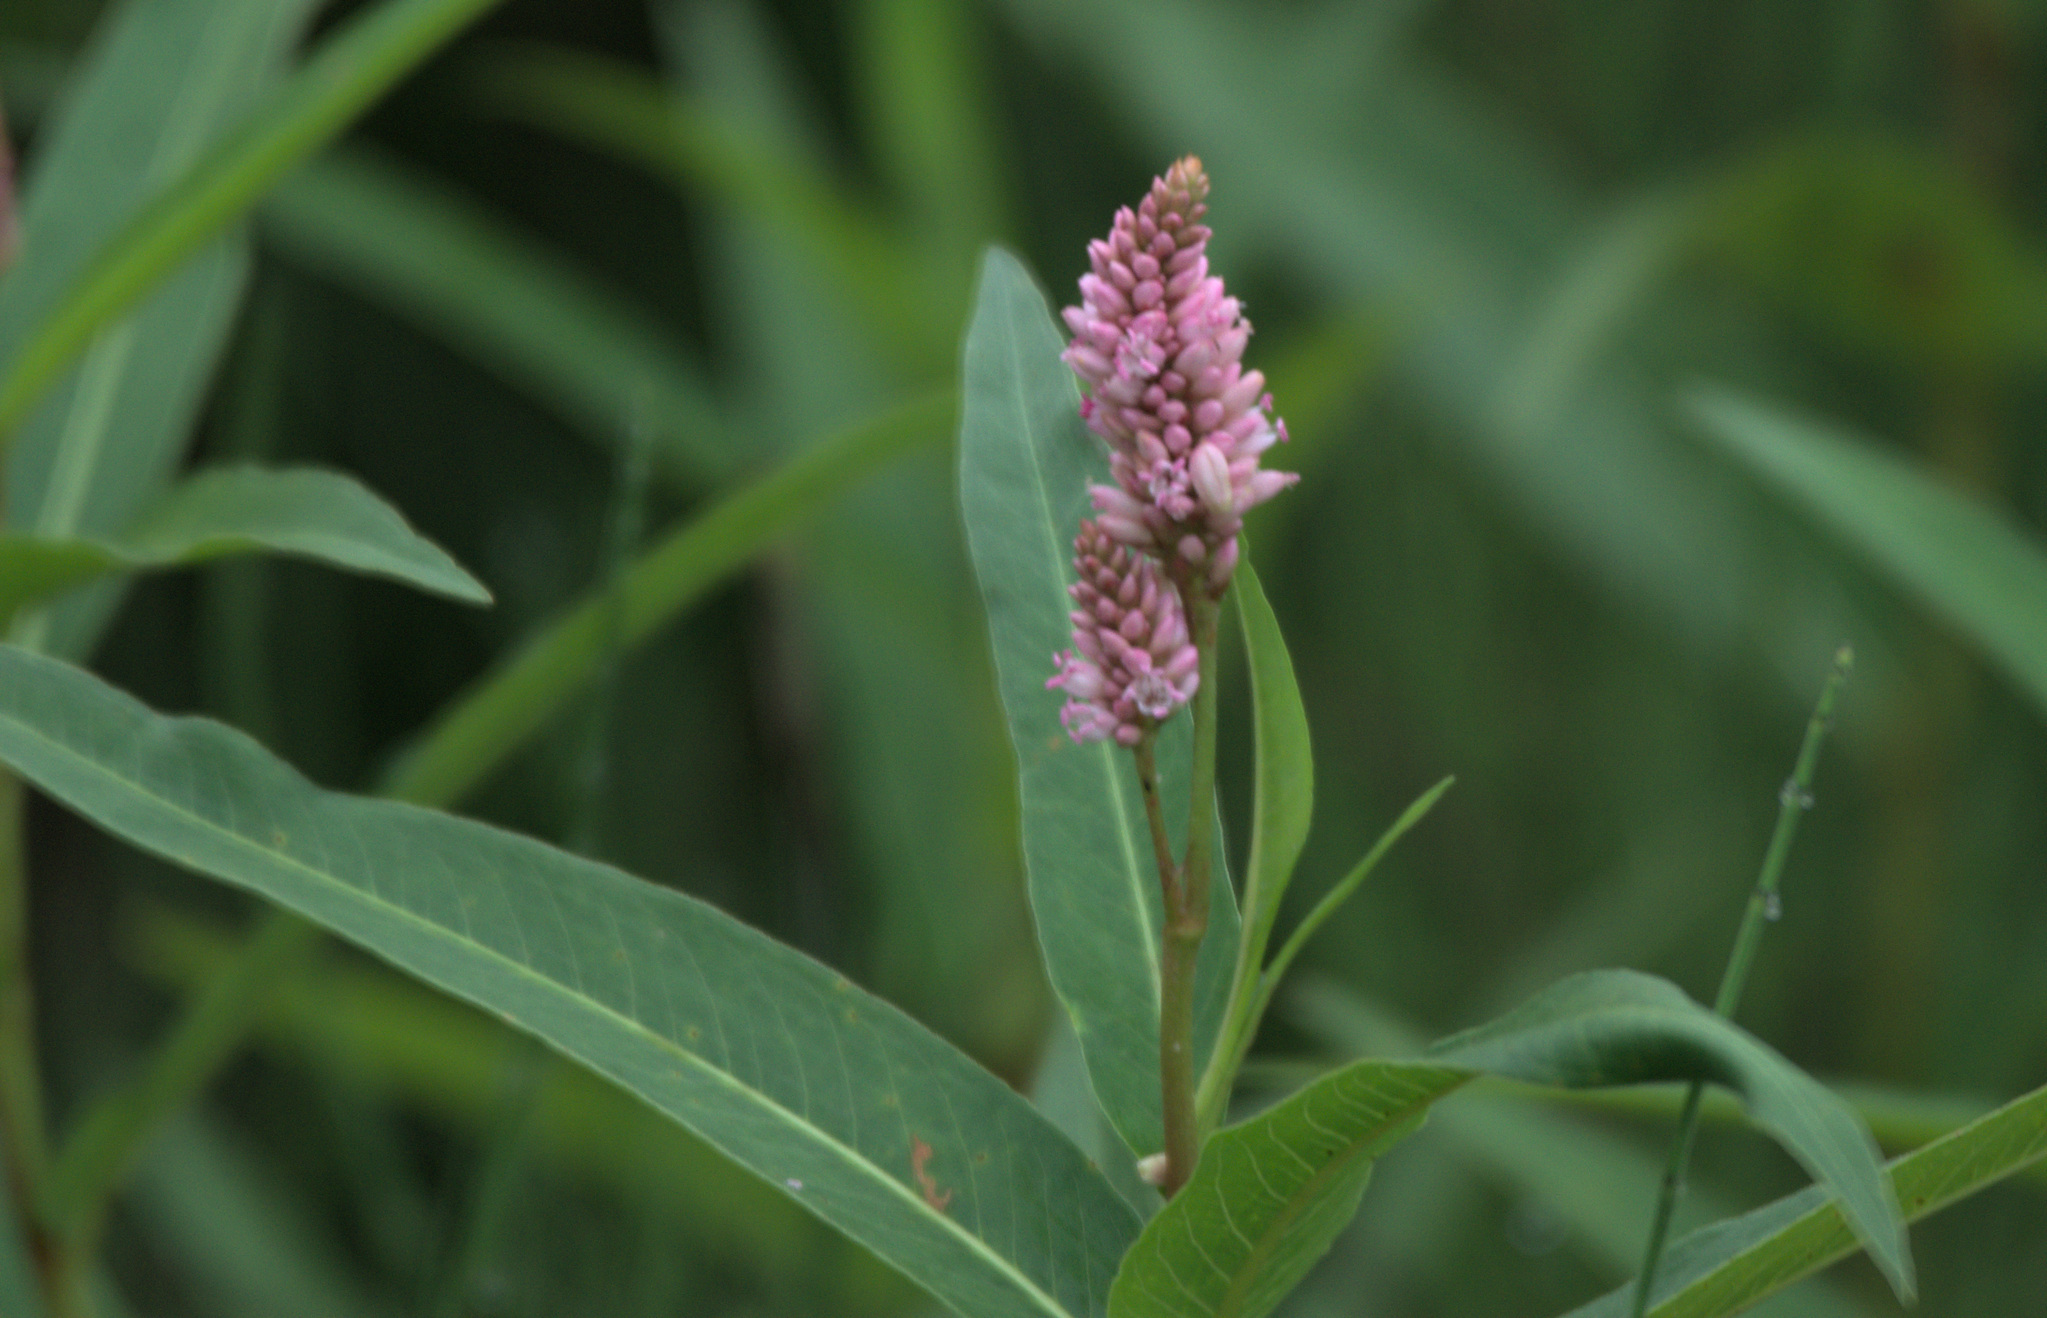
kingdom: Plantae
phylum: Tracheophyta
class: Magnoliopsida
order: Caryophyllales
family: Polygonaceae
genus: Persicaria
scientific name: Persicaria amphibia
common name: Amphibious bistort
